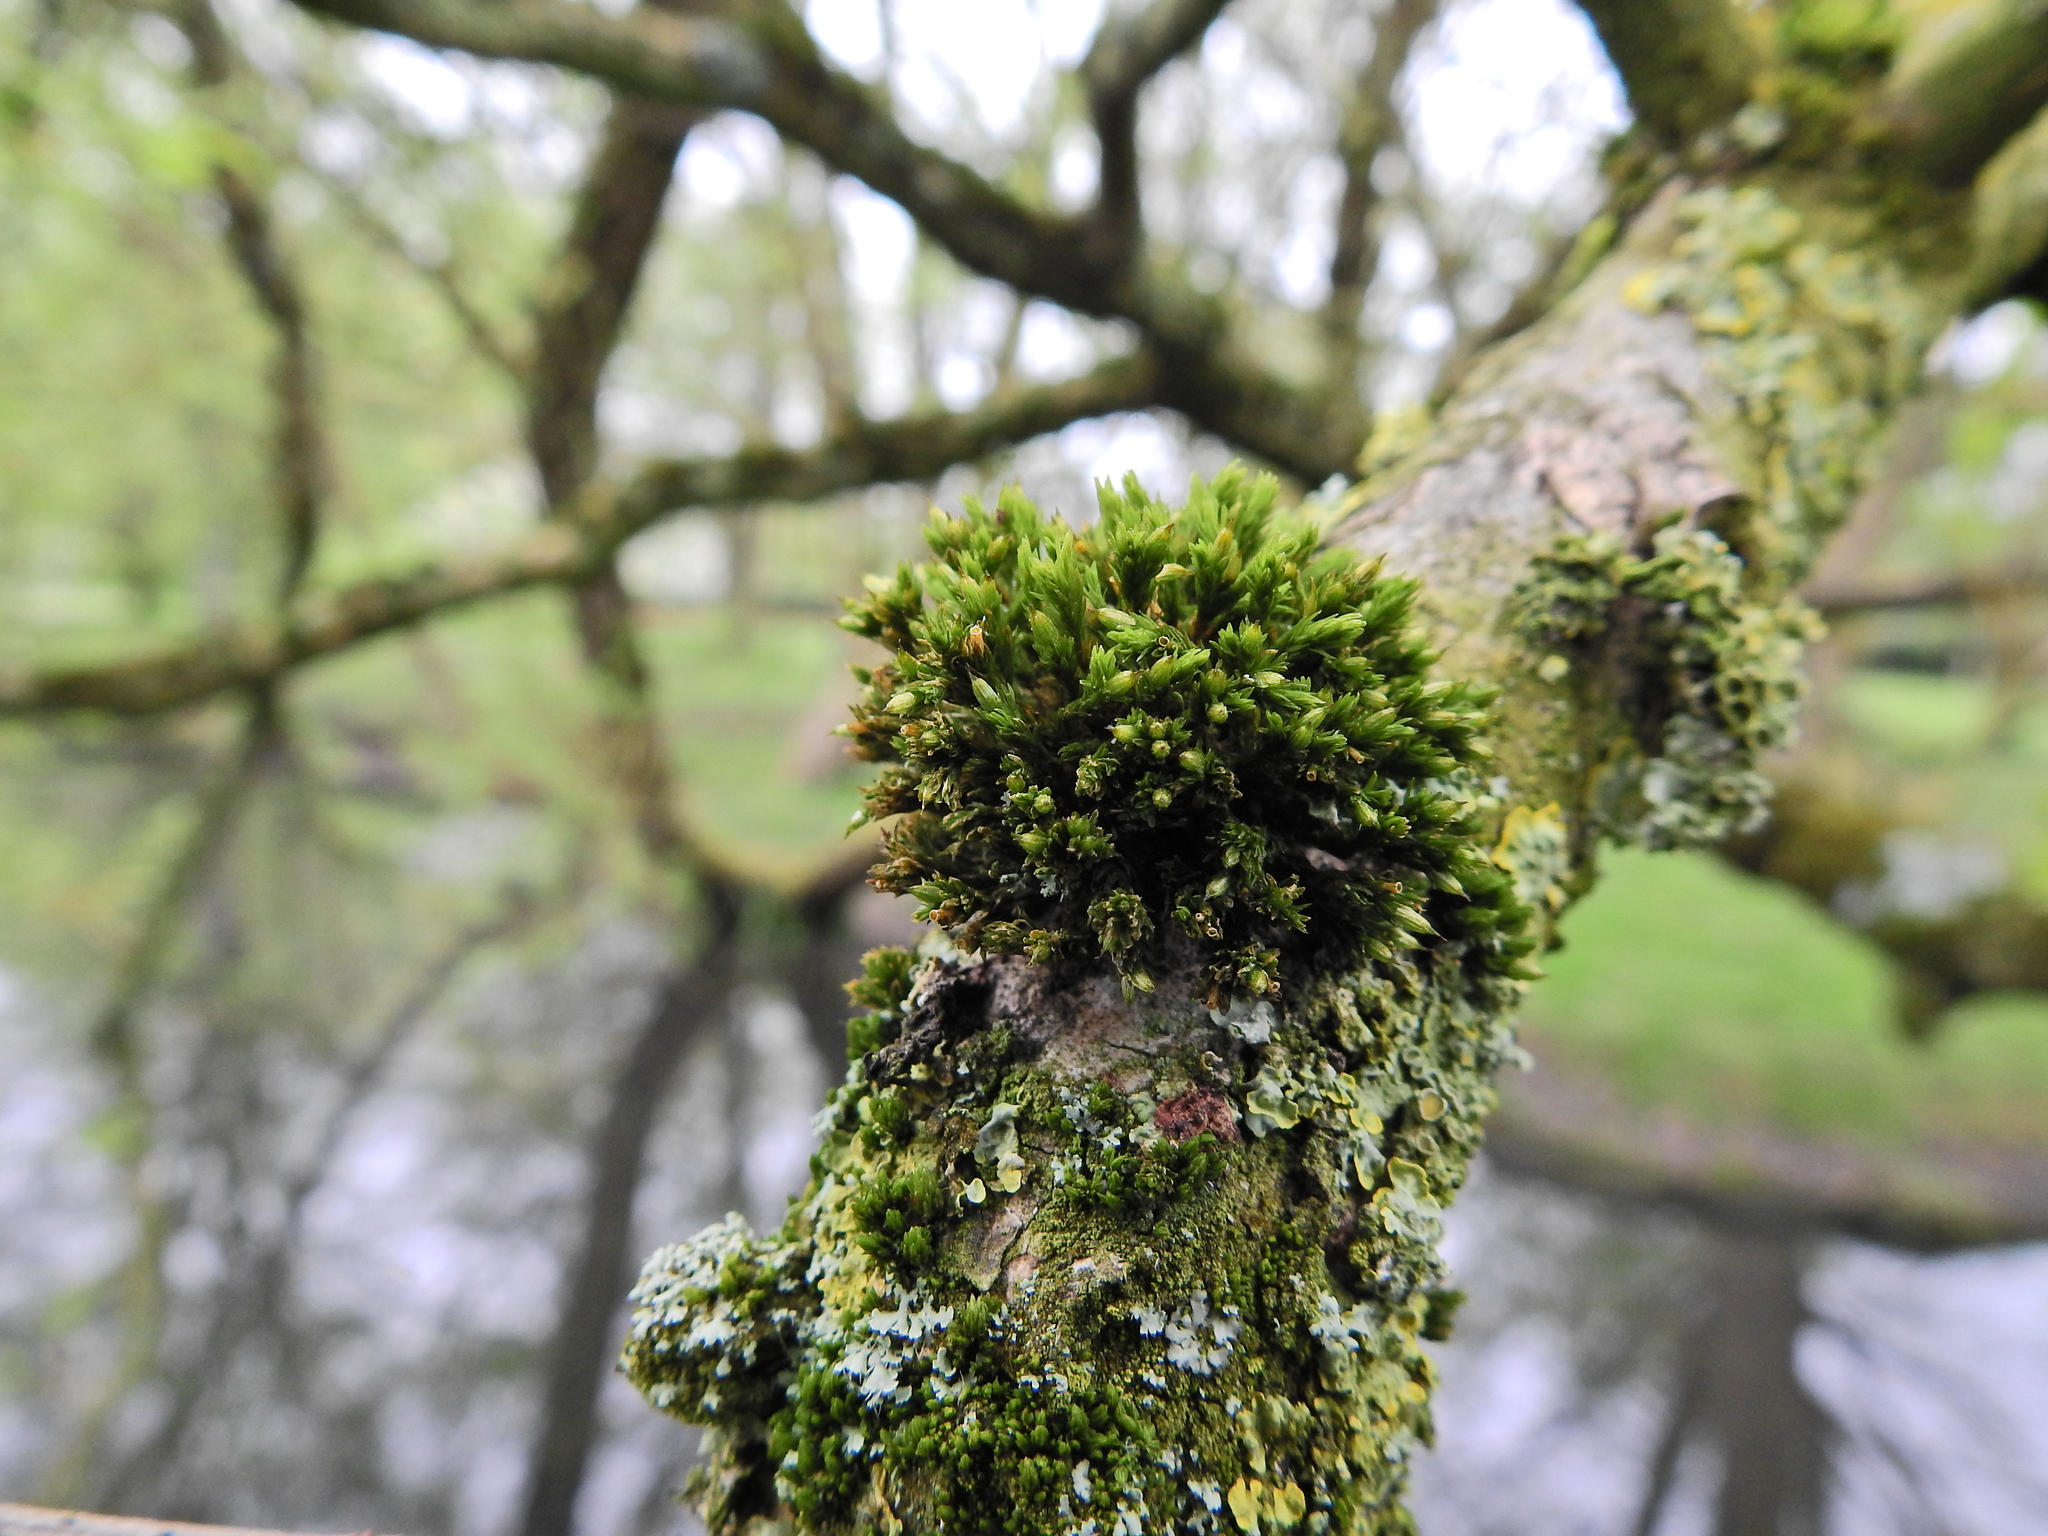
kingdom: Plantae
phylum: Bryophyta
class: Bryopsida
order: Orthotrichales
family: Orthotrichaceae
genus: Orthotrichum
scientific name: Orthotrichum stramineum
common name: Straw bristle-moss
